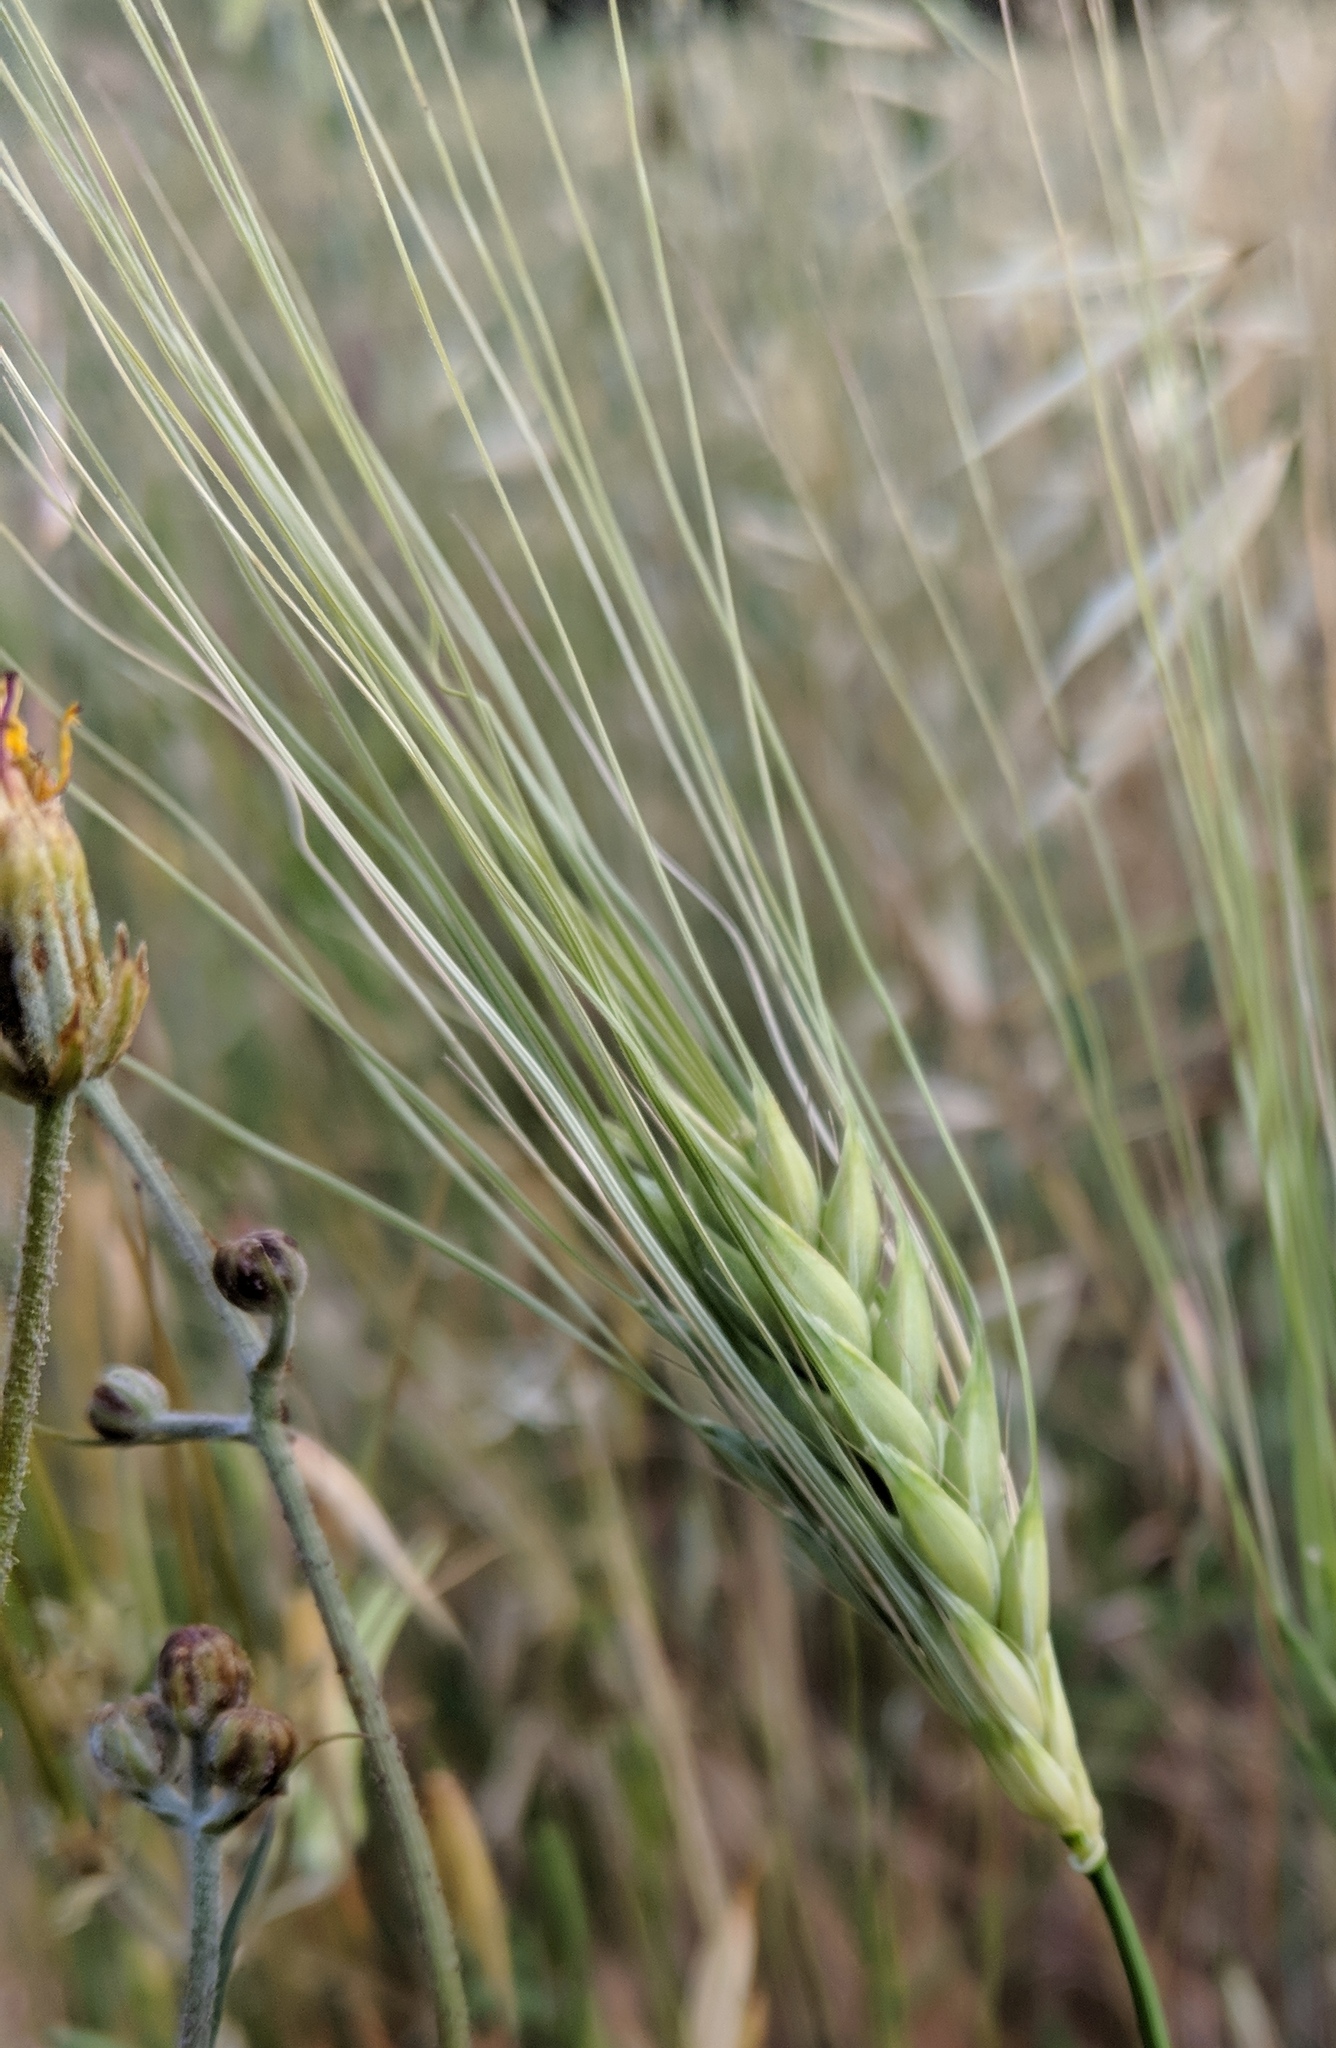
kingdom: Plantae
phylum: Tracheophyta
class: Liliopsida
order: Poales
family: Poaceae
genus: Triticum
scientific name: Triticum aestivum
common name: Common wheat
